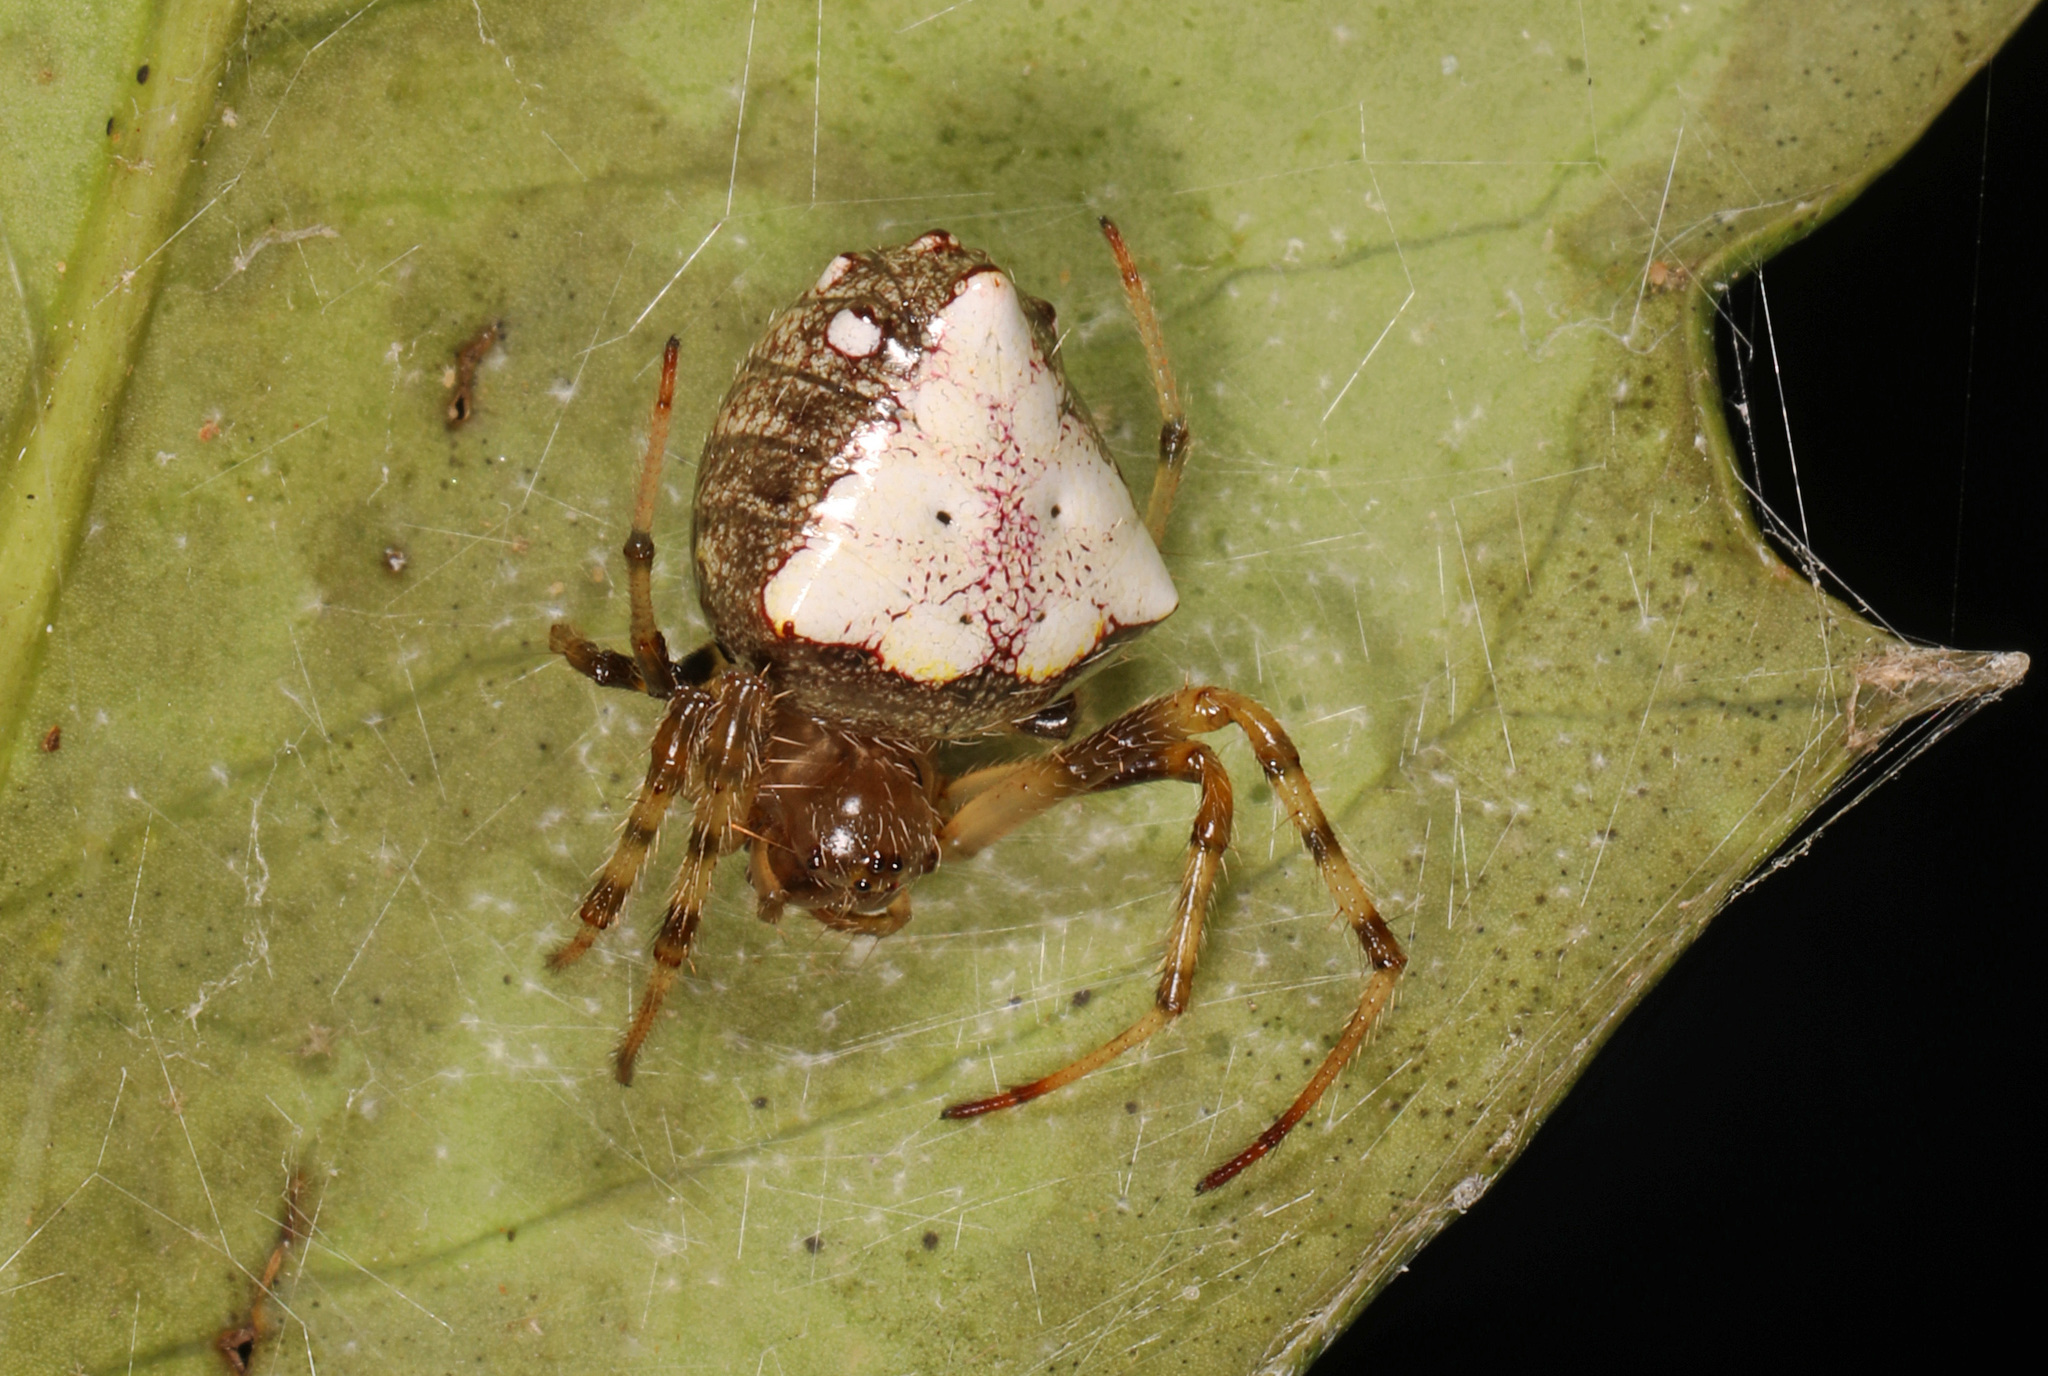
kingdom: Animalia
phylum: Arthropoda
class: Arachnida
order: Araneae
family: Araneidae
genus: Verrucosa
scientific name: Verrucosa arenata
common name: Orb weavers
